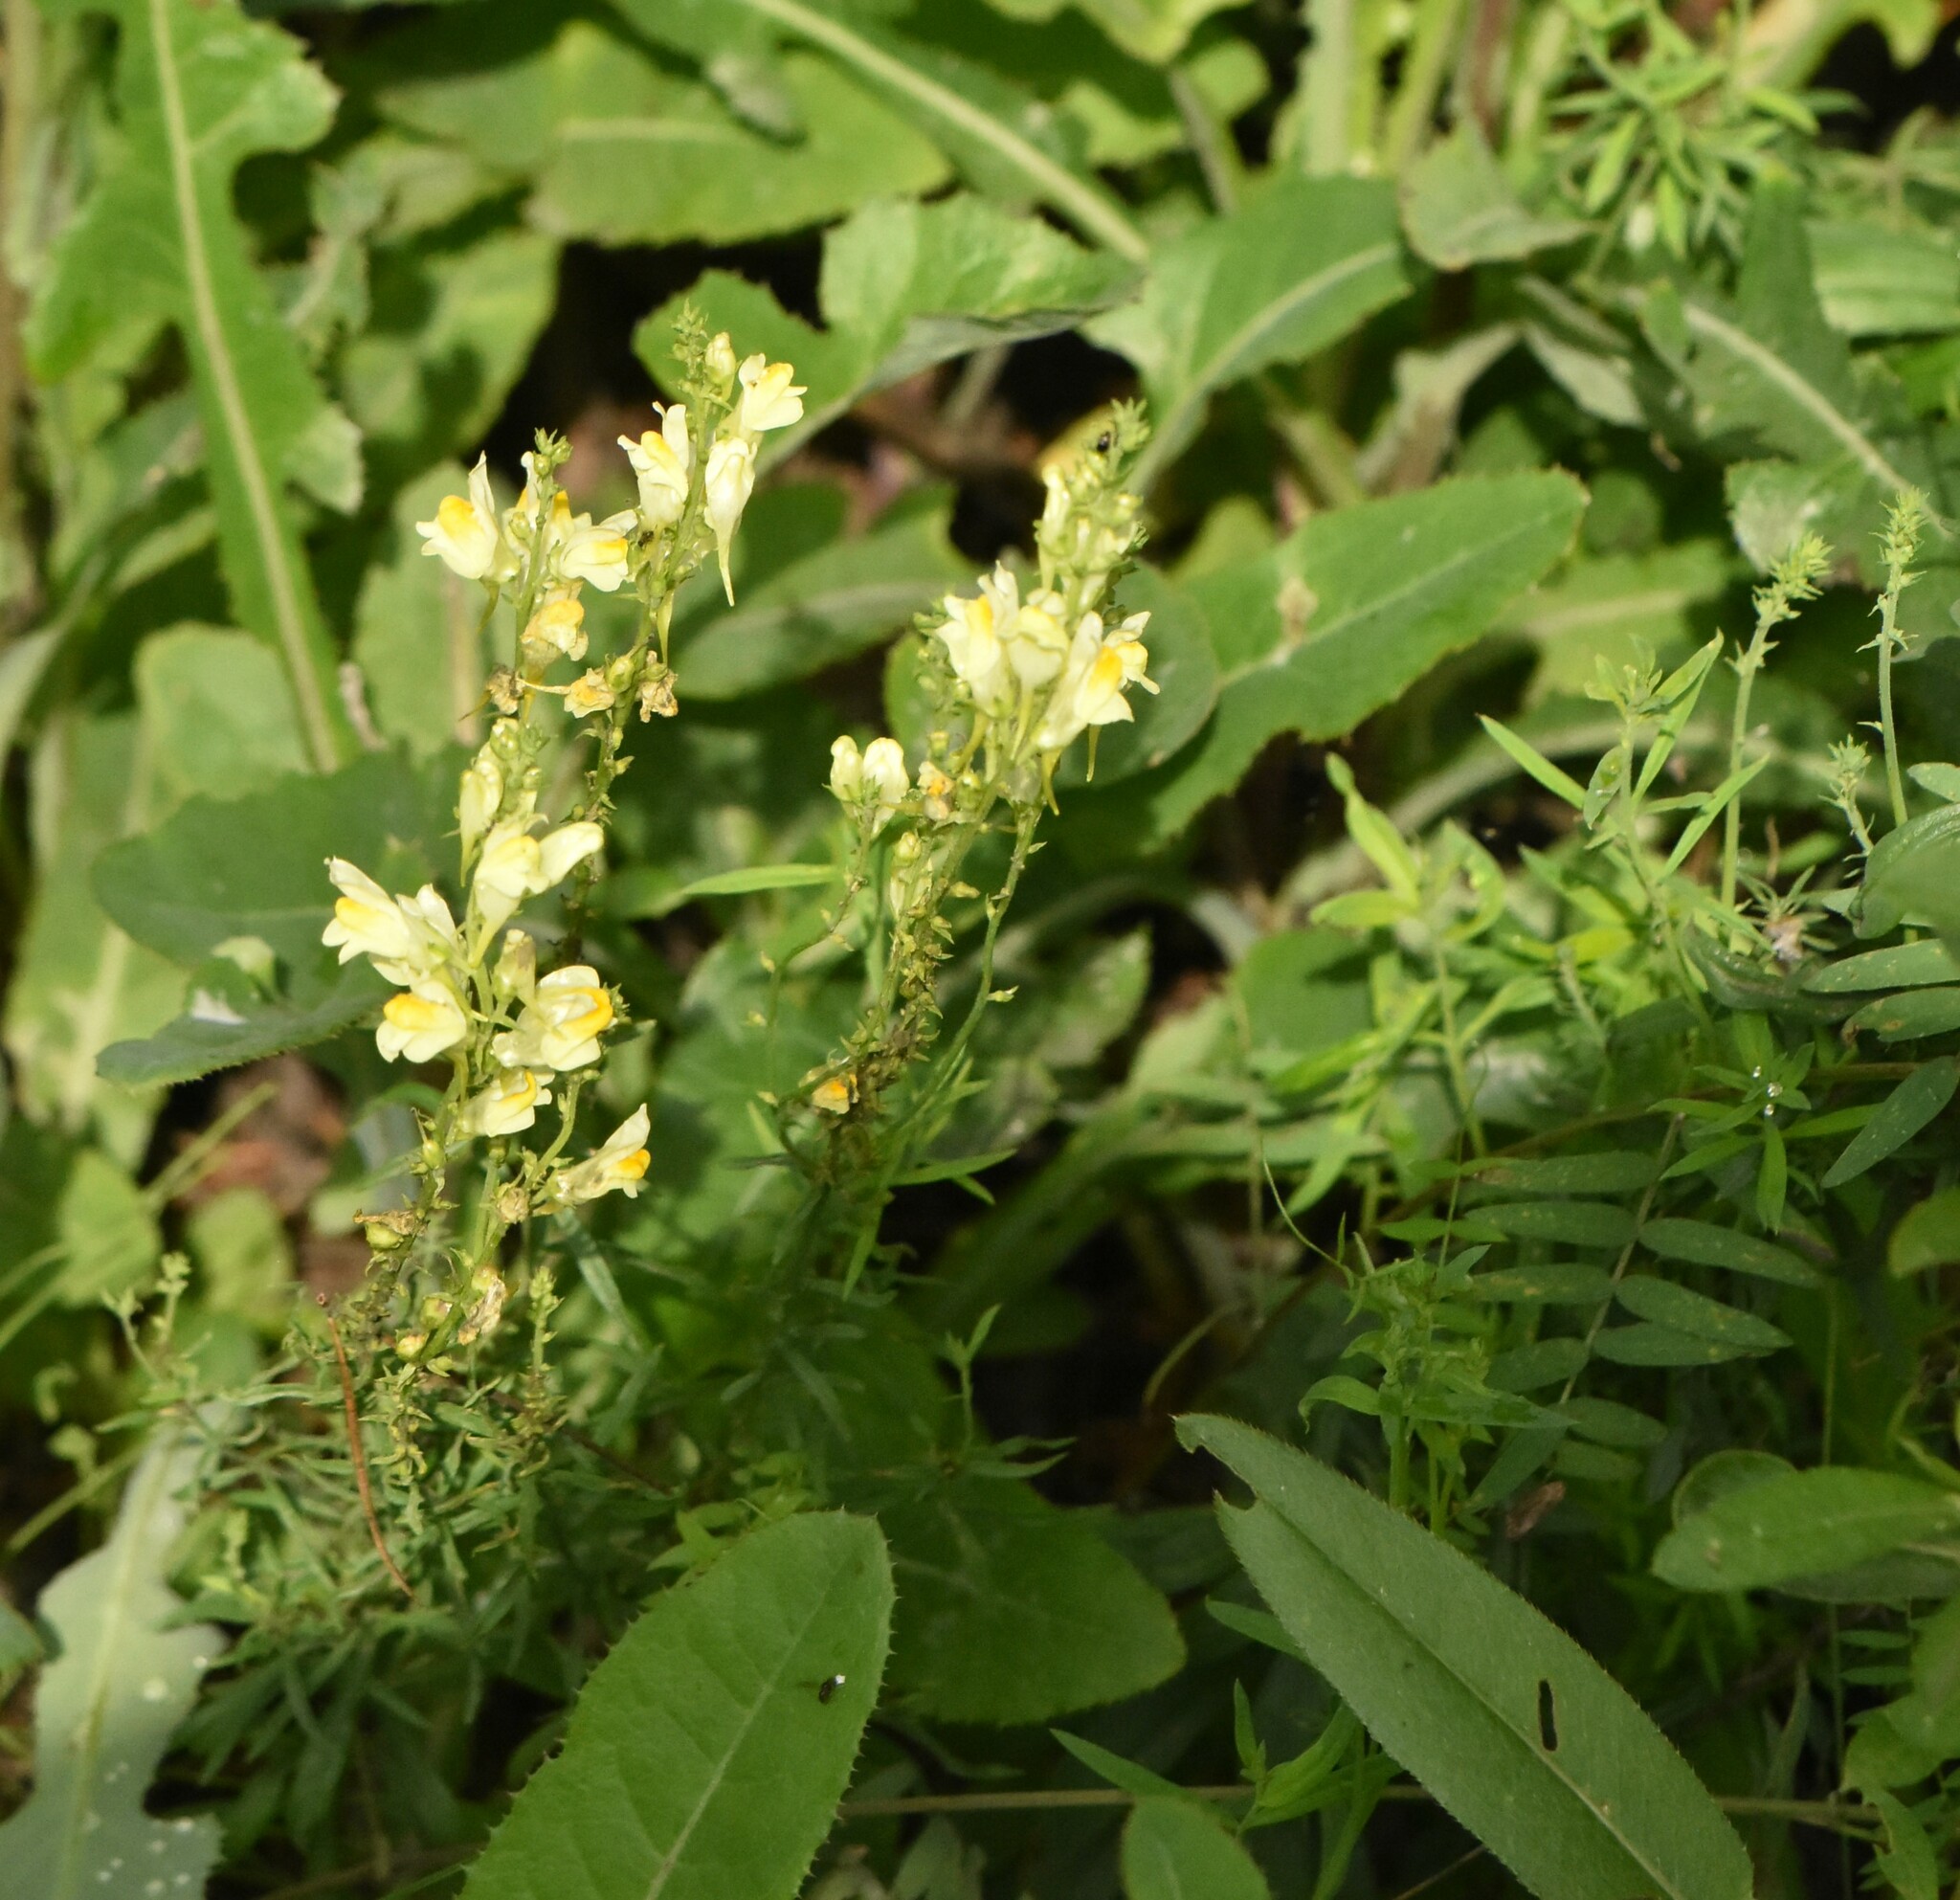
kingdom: Plantae
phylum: Tracheophyta
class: Magnoliopsida
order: Lamiales
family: Plantaginaceae
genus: Linaria
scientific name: Linaria vulgaris
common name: Butter and eggs
